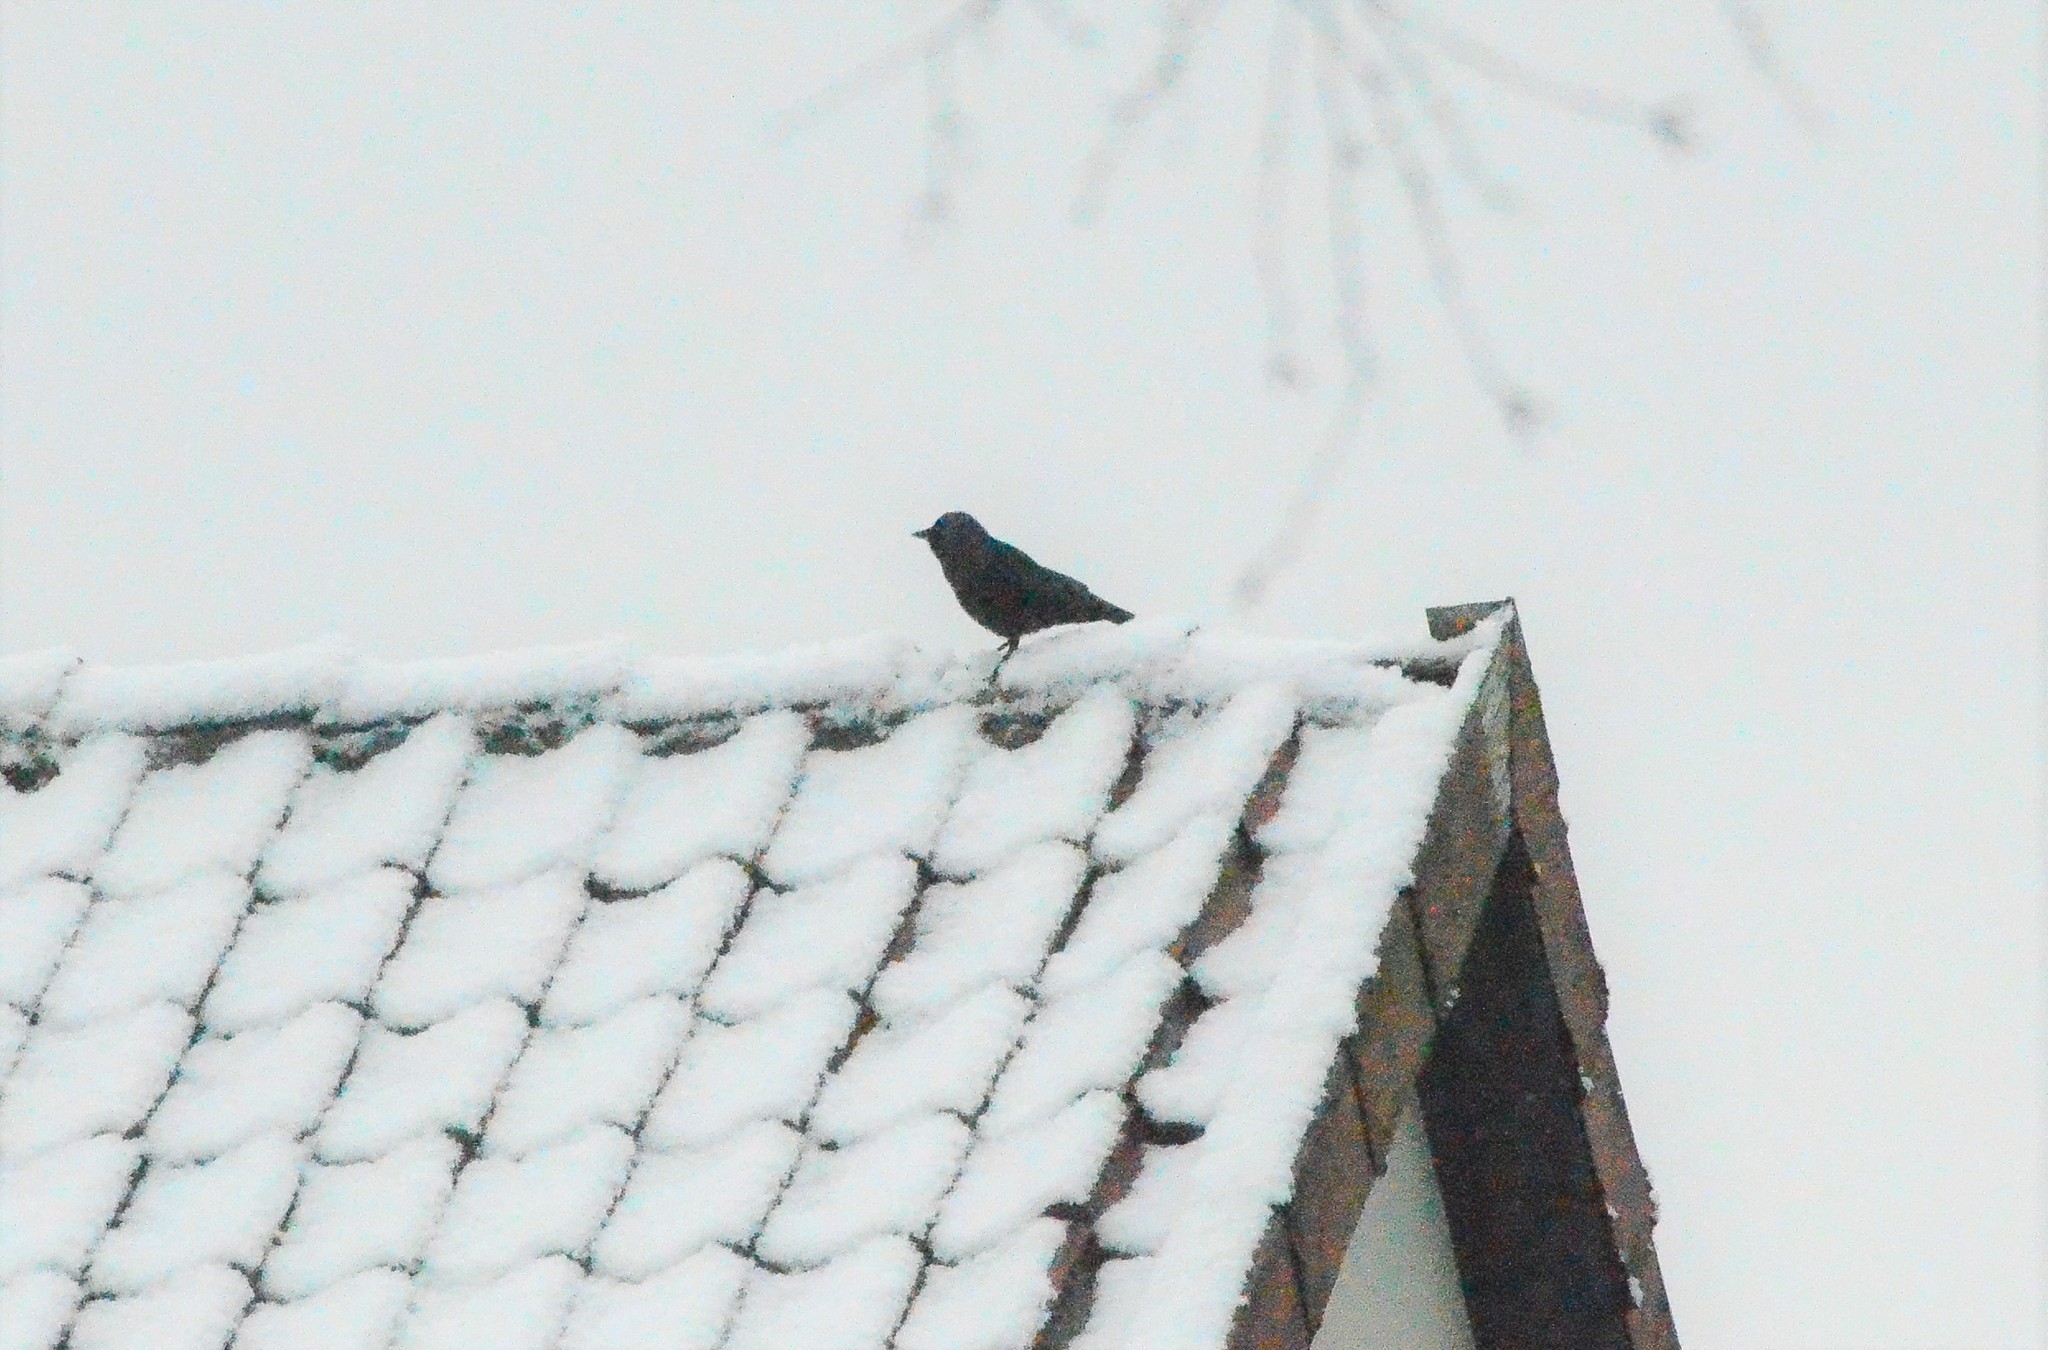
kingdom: Animalia
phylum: Chordata
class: Aves
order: Passeriformes
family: Corvidae
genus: Coloeus
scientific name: Coloeus monedula
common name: Western jackdaw
